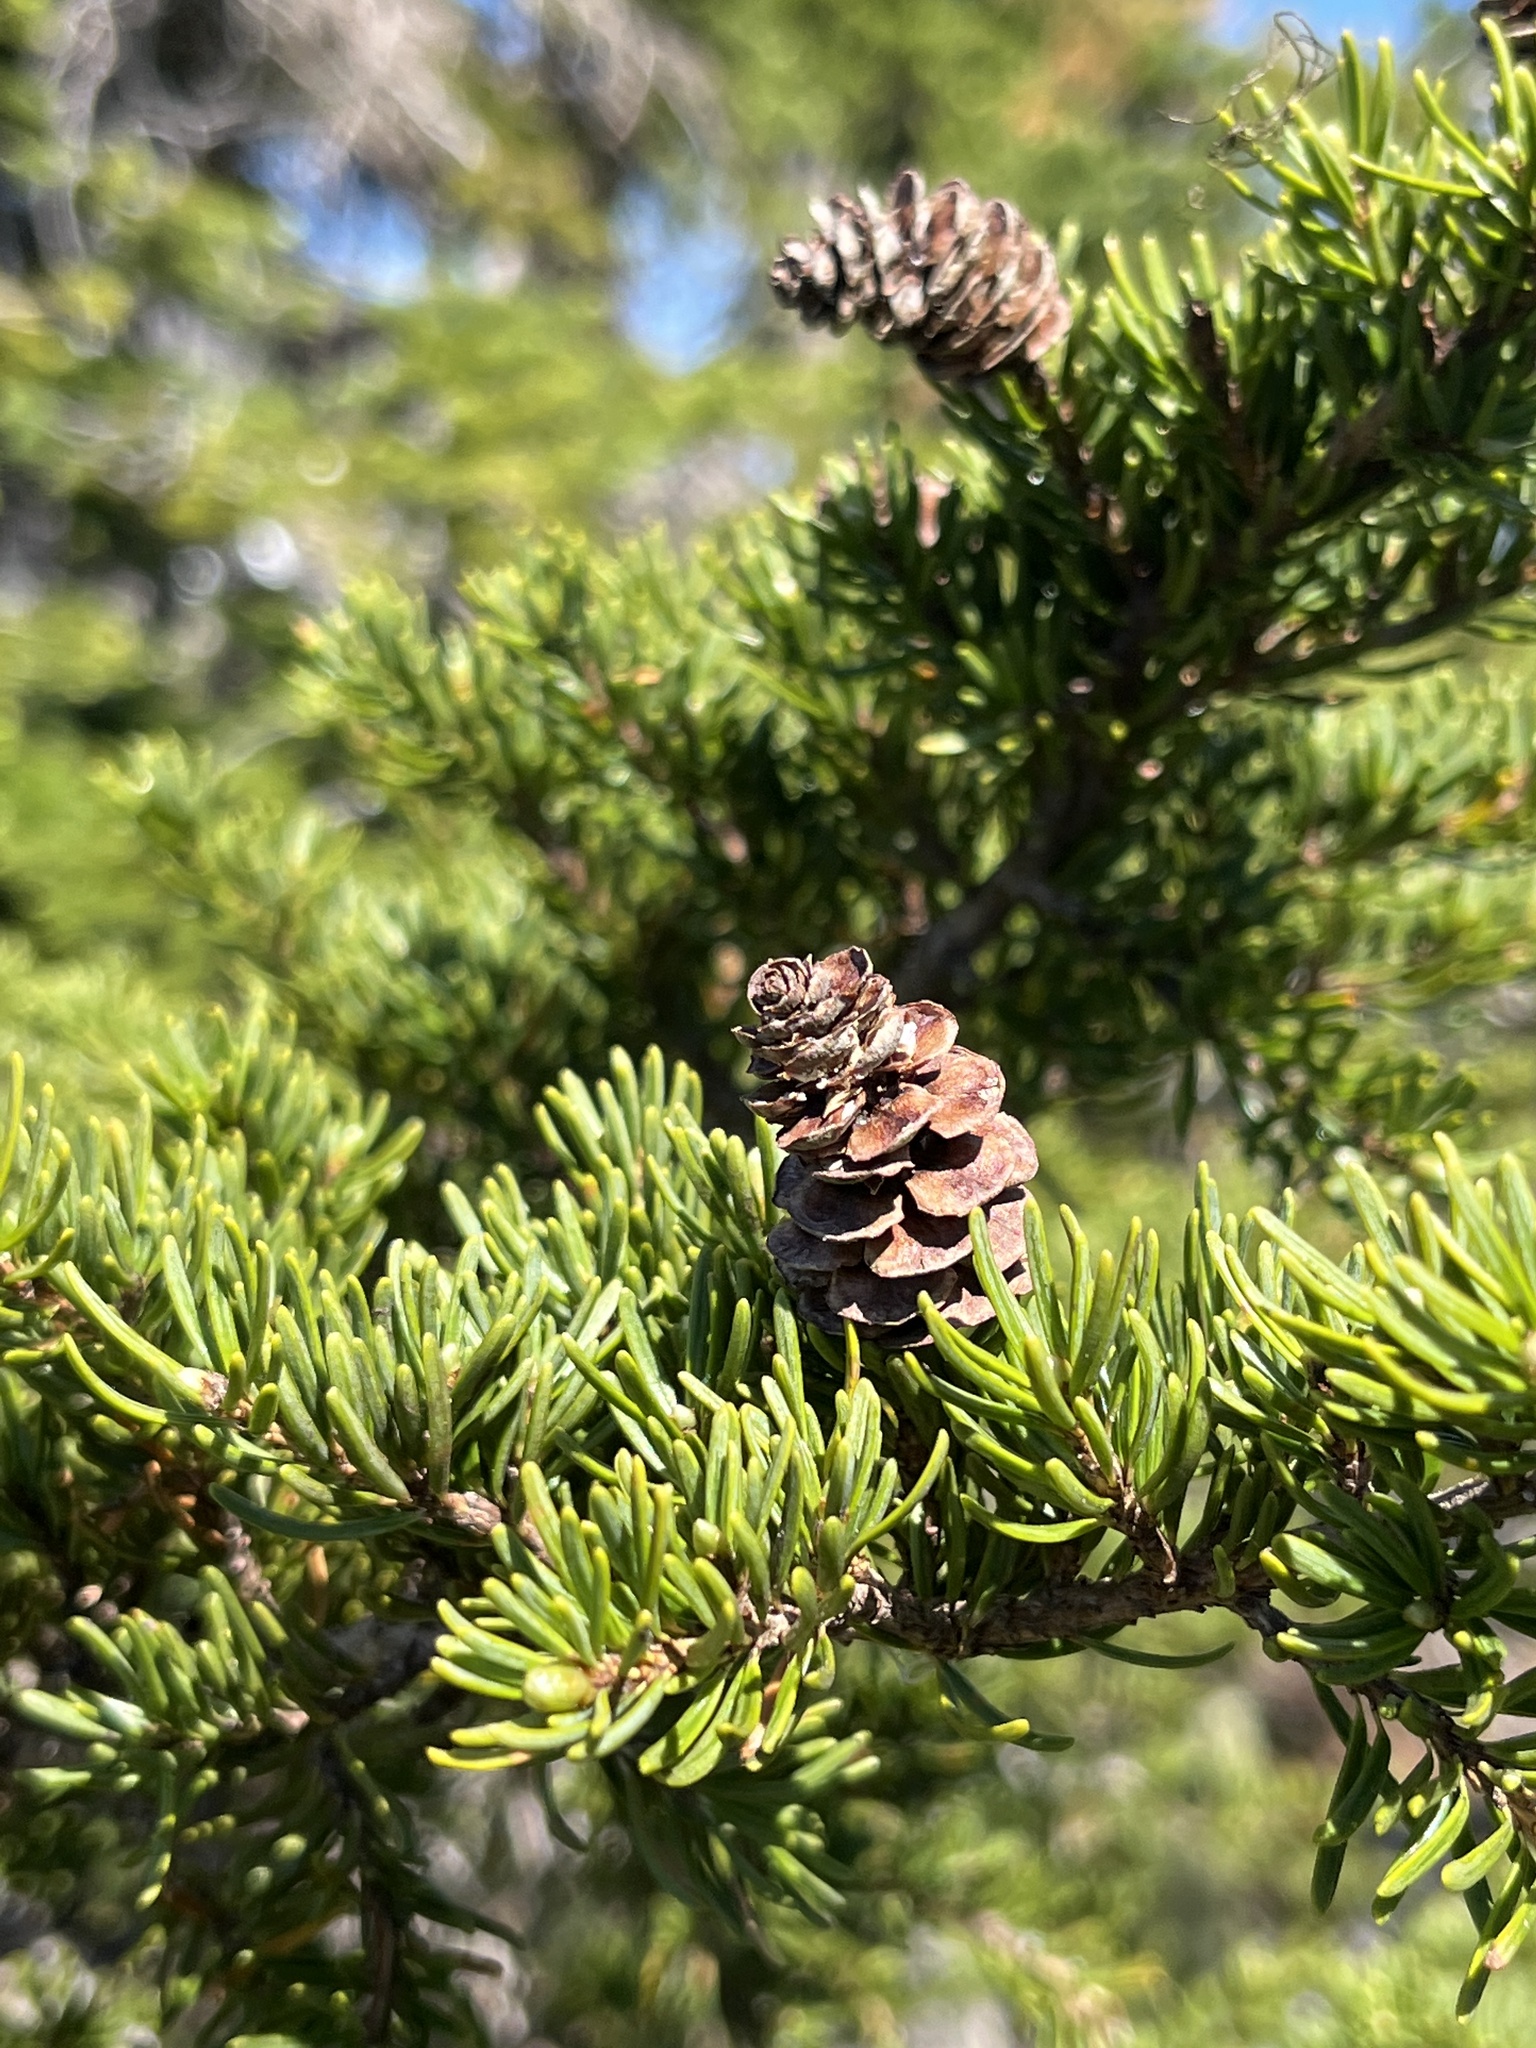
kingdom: Plantae
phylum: Tracheophyta
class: Pinopsida
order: Pinales
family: Pinaceae
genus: Tsuga
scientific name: Tsuga mertensiana
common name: Mountain hemlock
